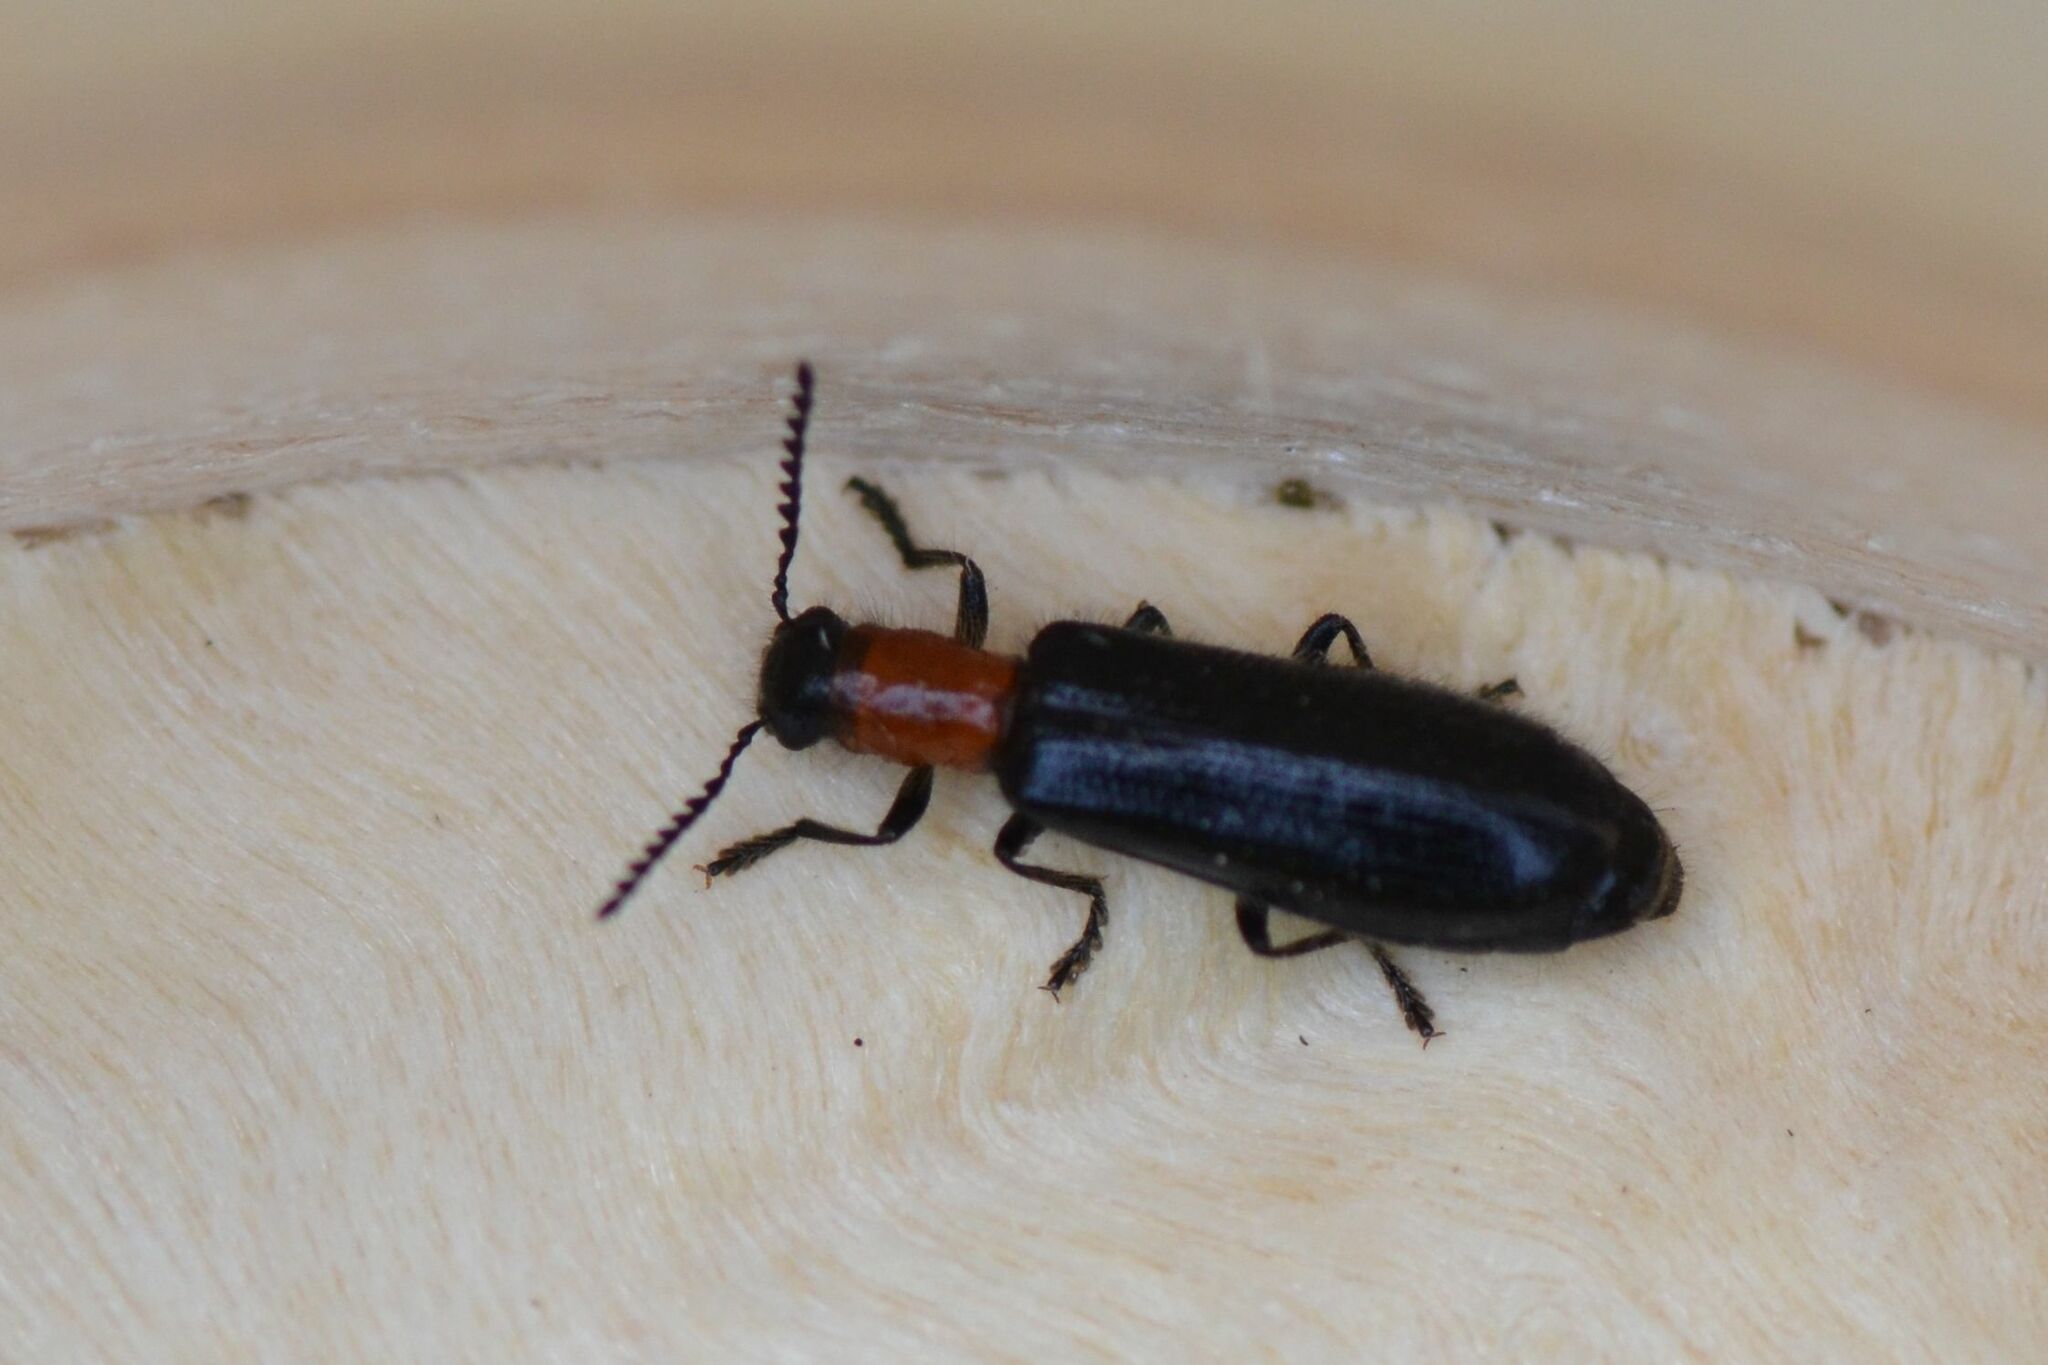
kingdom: Animalia
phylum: Arthropoda
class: Insecta
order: Coleoptera
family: Cleridae
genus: Tillus
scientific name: Tillus elongatus
